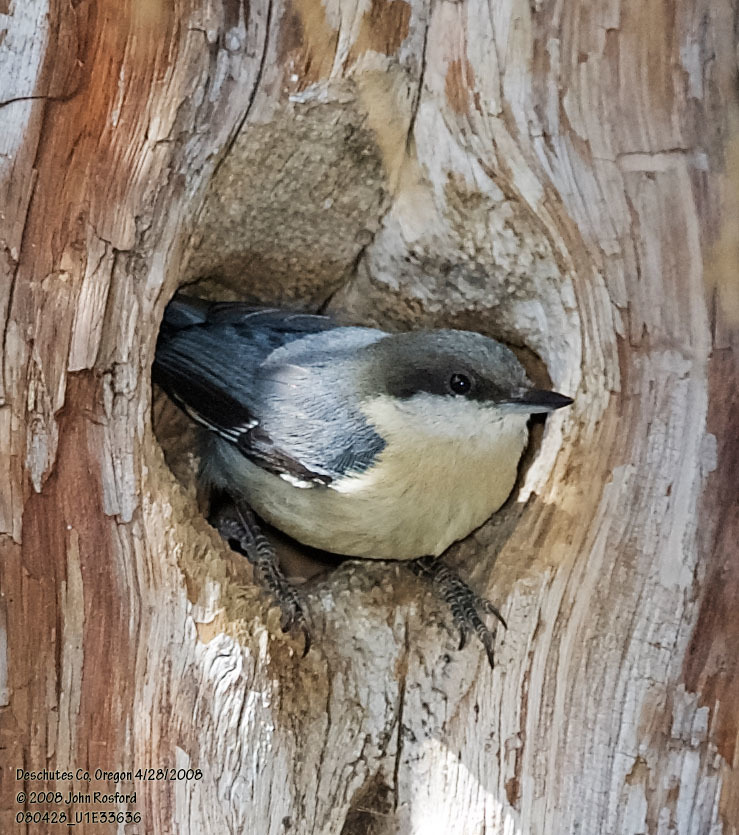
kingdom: Animalia
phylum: Chordata
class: Aves
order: Passeriformes
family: Sittidae
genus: Sitta
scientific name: Sitta pygmaea
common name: Pygmy nuthatch
